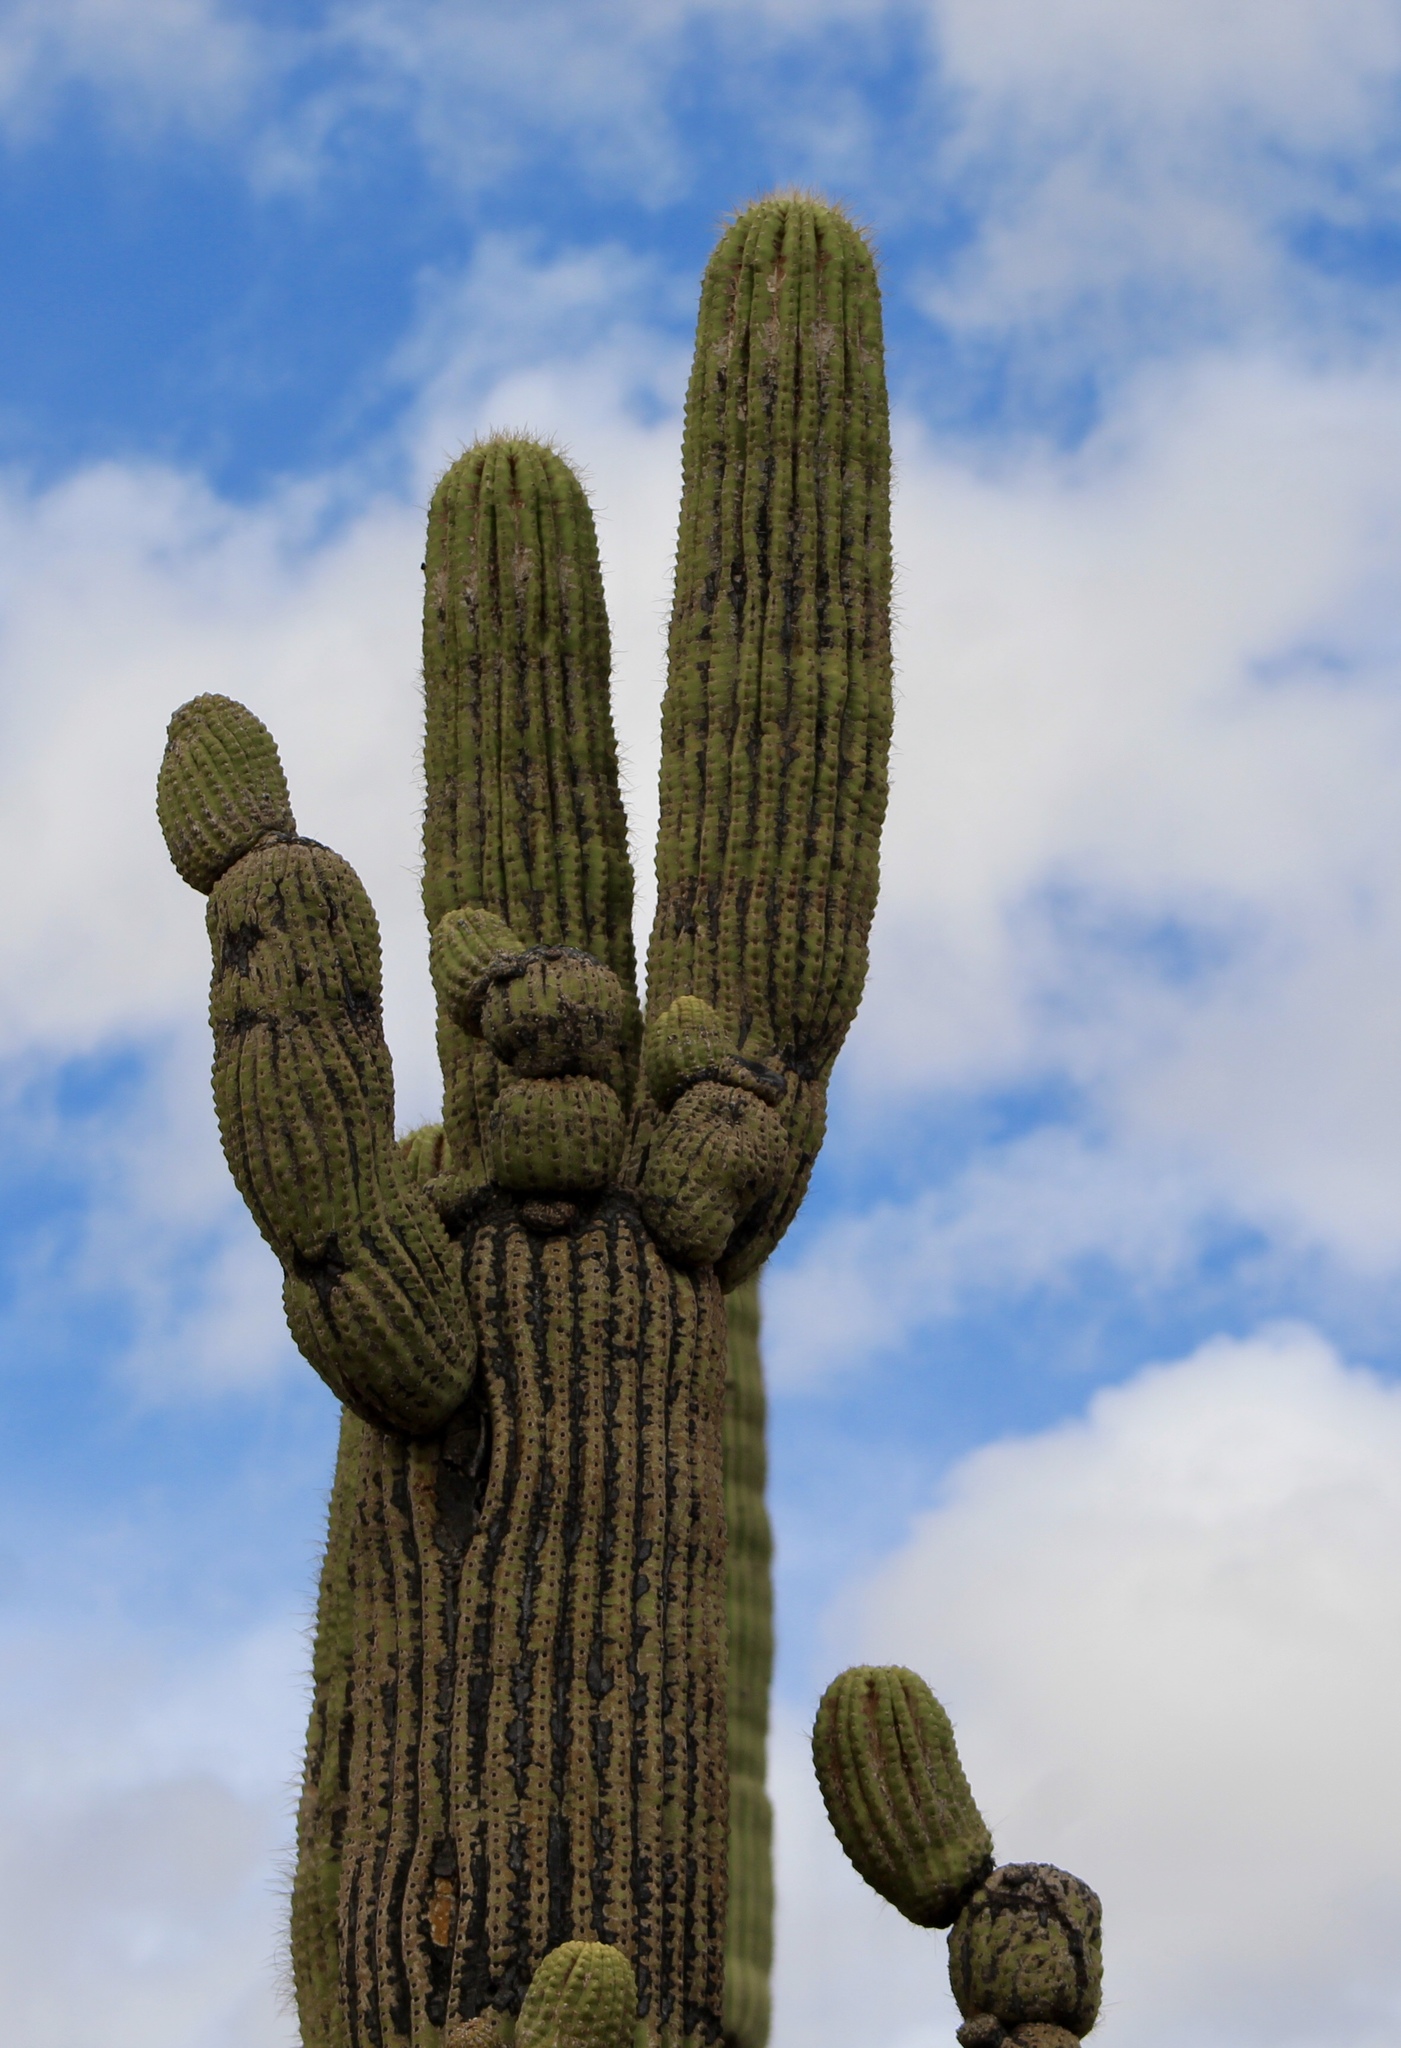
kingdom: Plantae
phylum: Tracheophyta
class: Magnoliopsida
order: Caryophyllales
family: Cactaceae
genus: Carnegiea
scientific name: Carnegiea gigantea
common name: Saguaro
